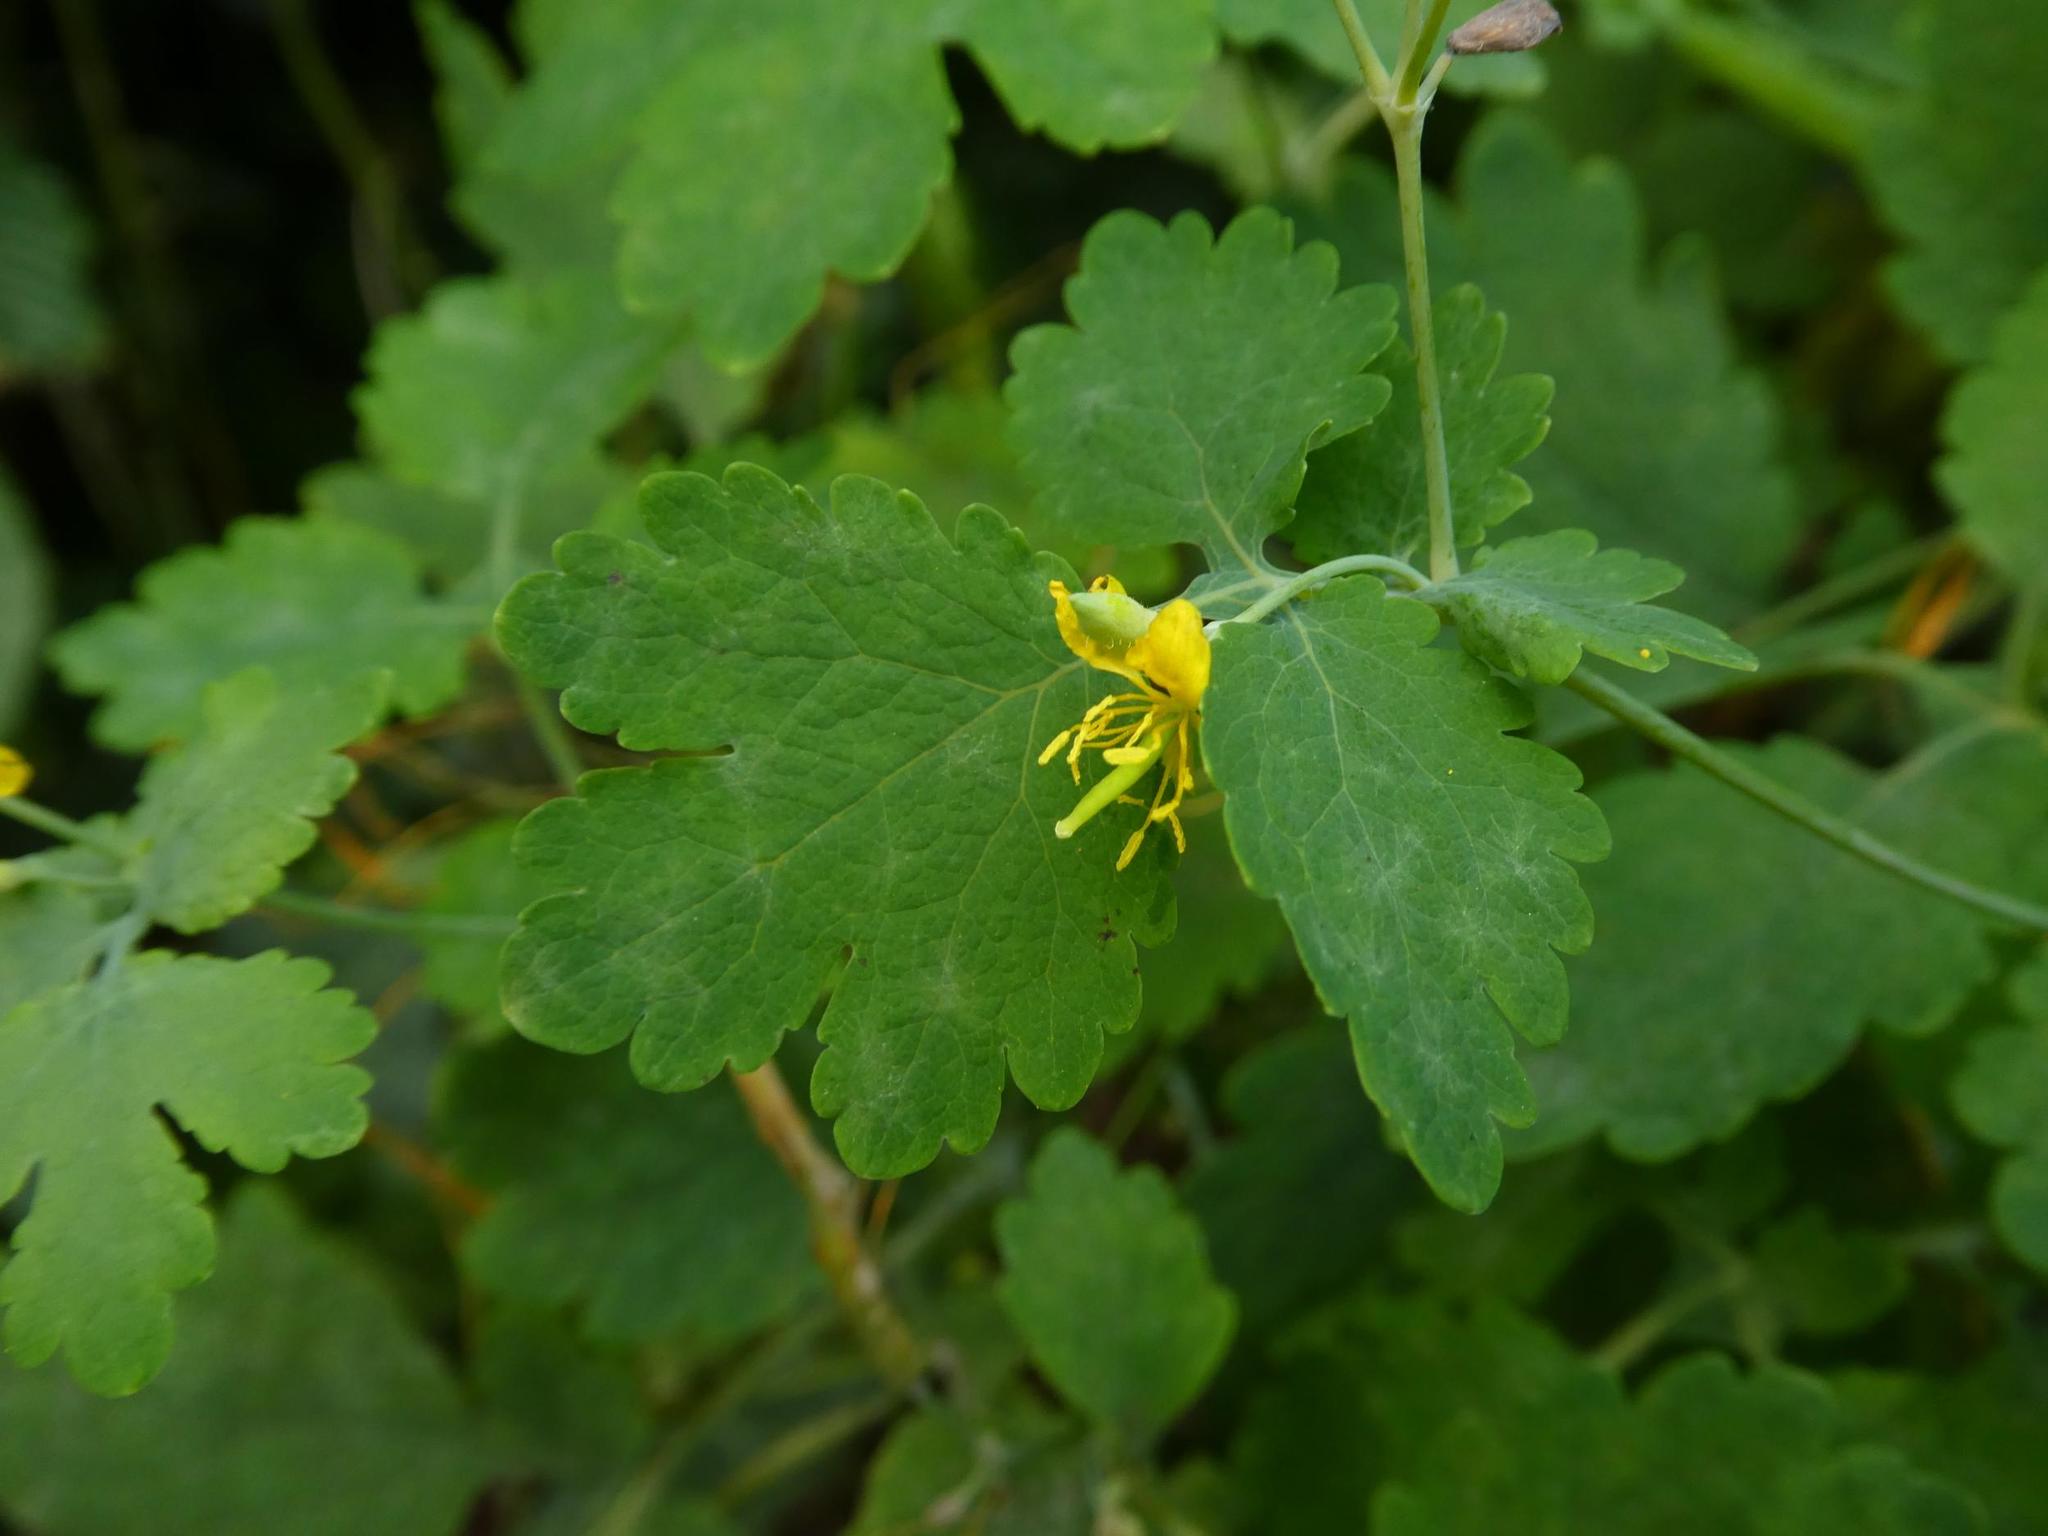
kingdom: Plantae
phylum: Tracheophyta
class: Magnoliopsida
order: Ranunculales
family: Papaveraceae
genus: Chelidonium
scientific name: Chelidonium majus
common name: Greater celandine
